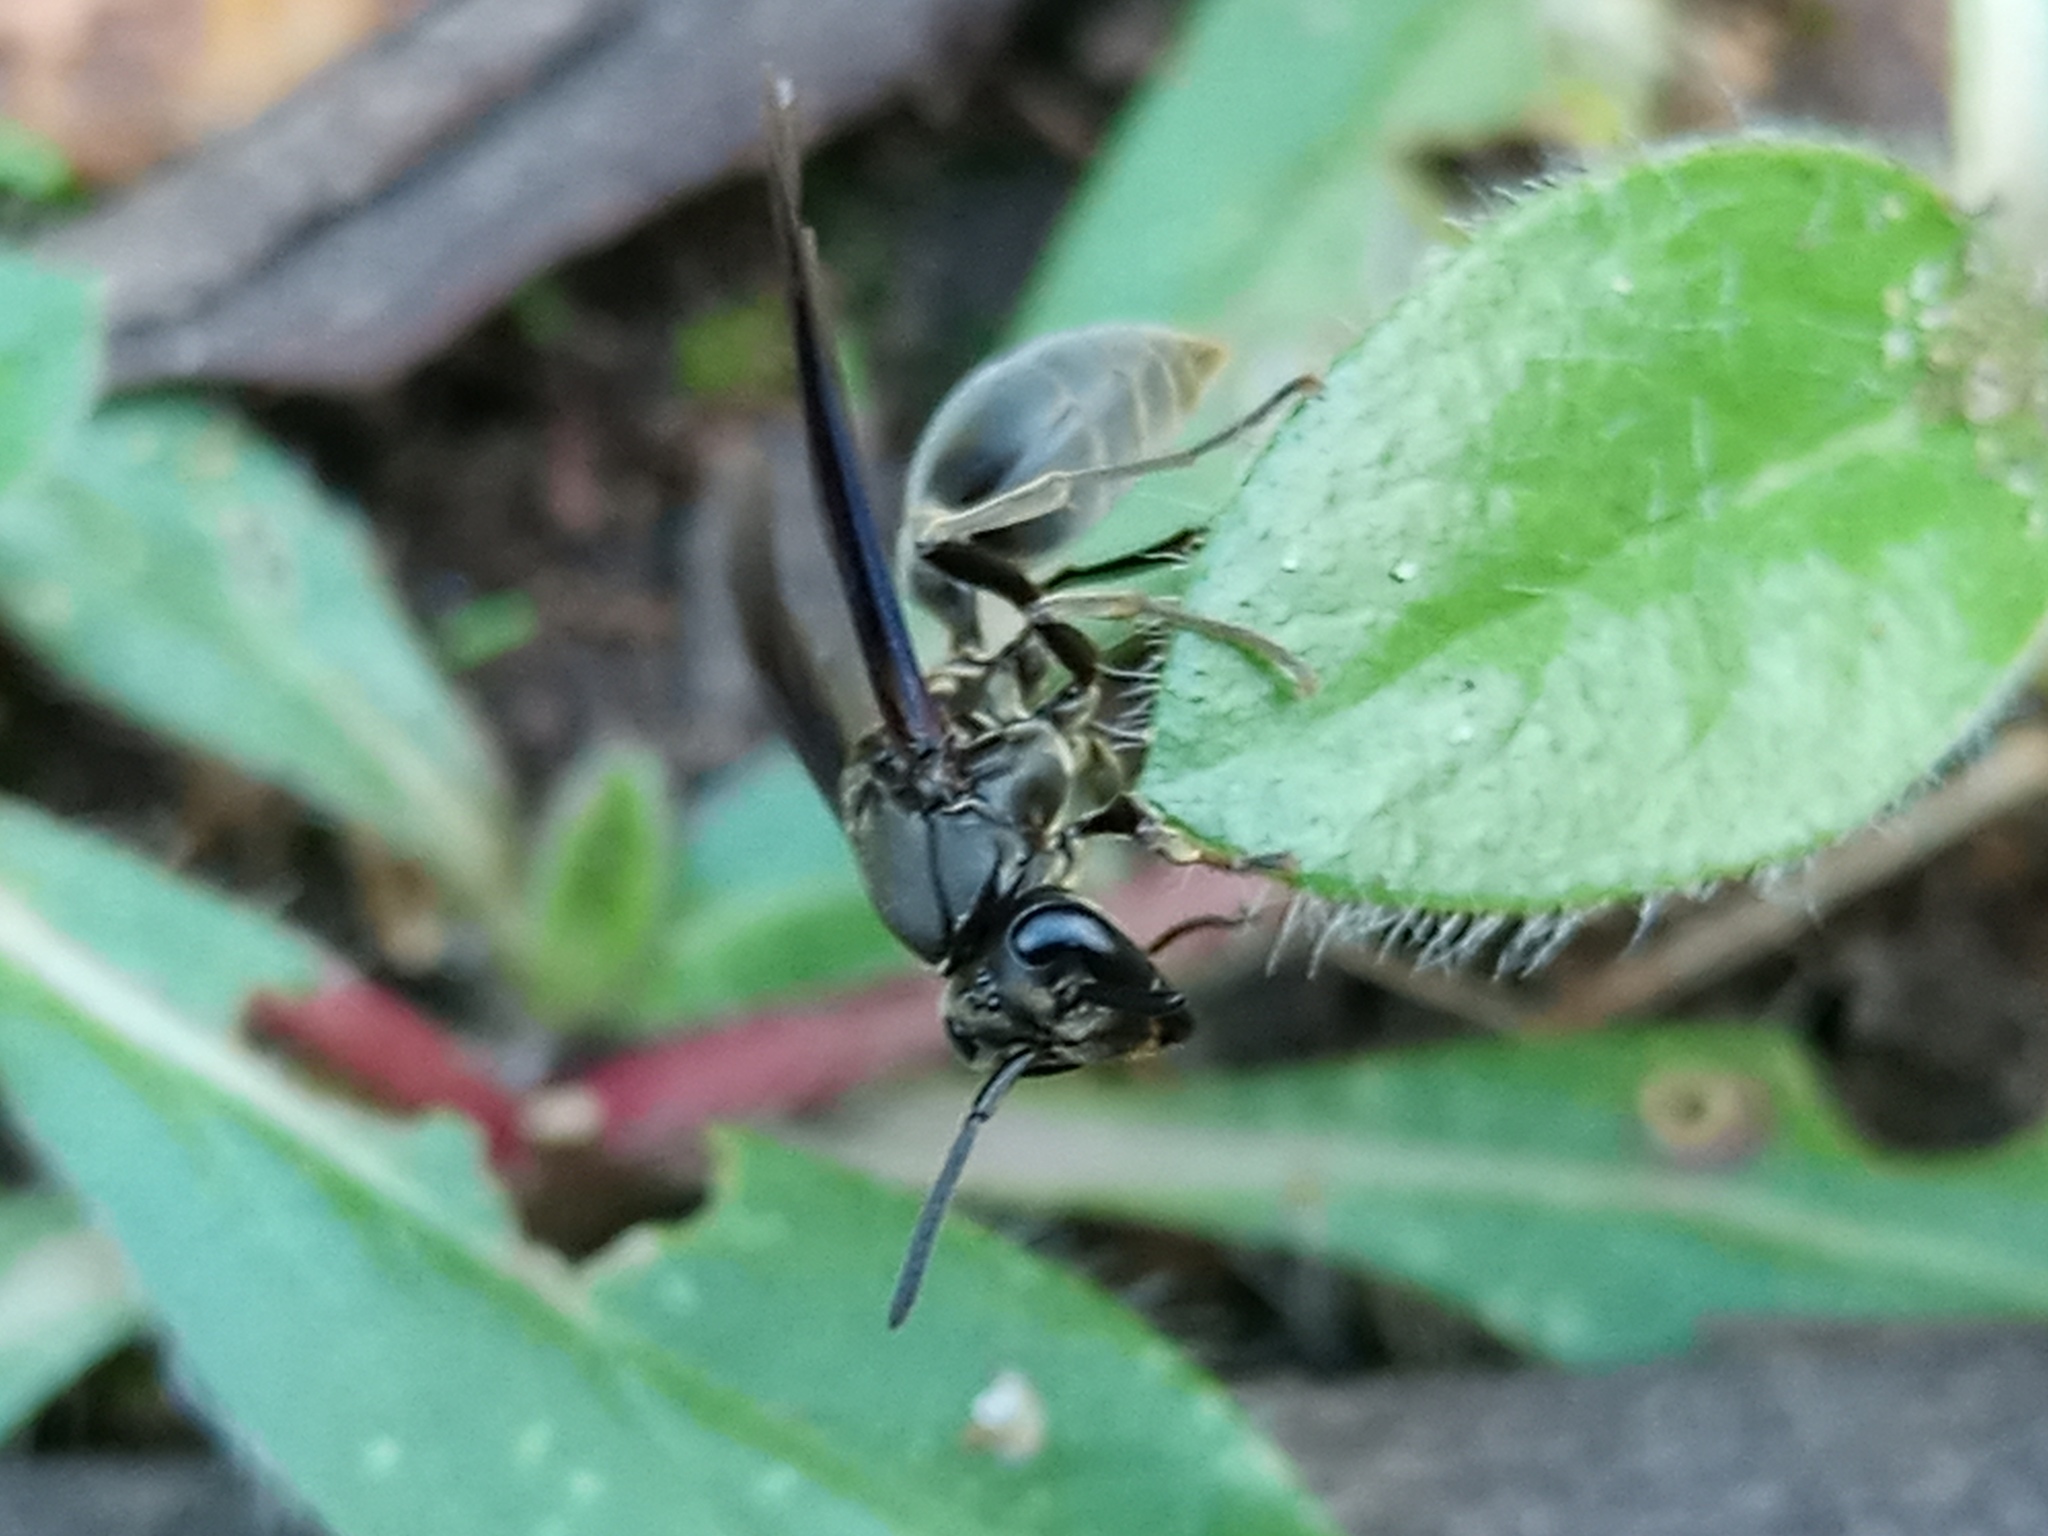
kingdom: Animalia
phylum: Arthropoda
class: Insecta
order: Hymenoptera
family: Eumenidae
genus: Polybia
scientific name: Polybia ignobilis
